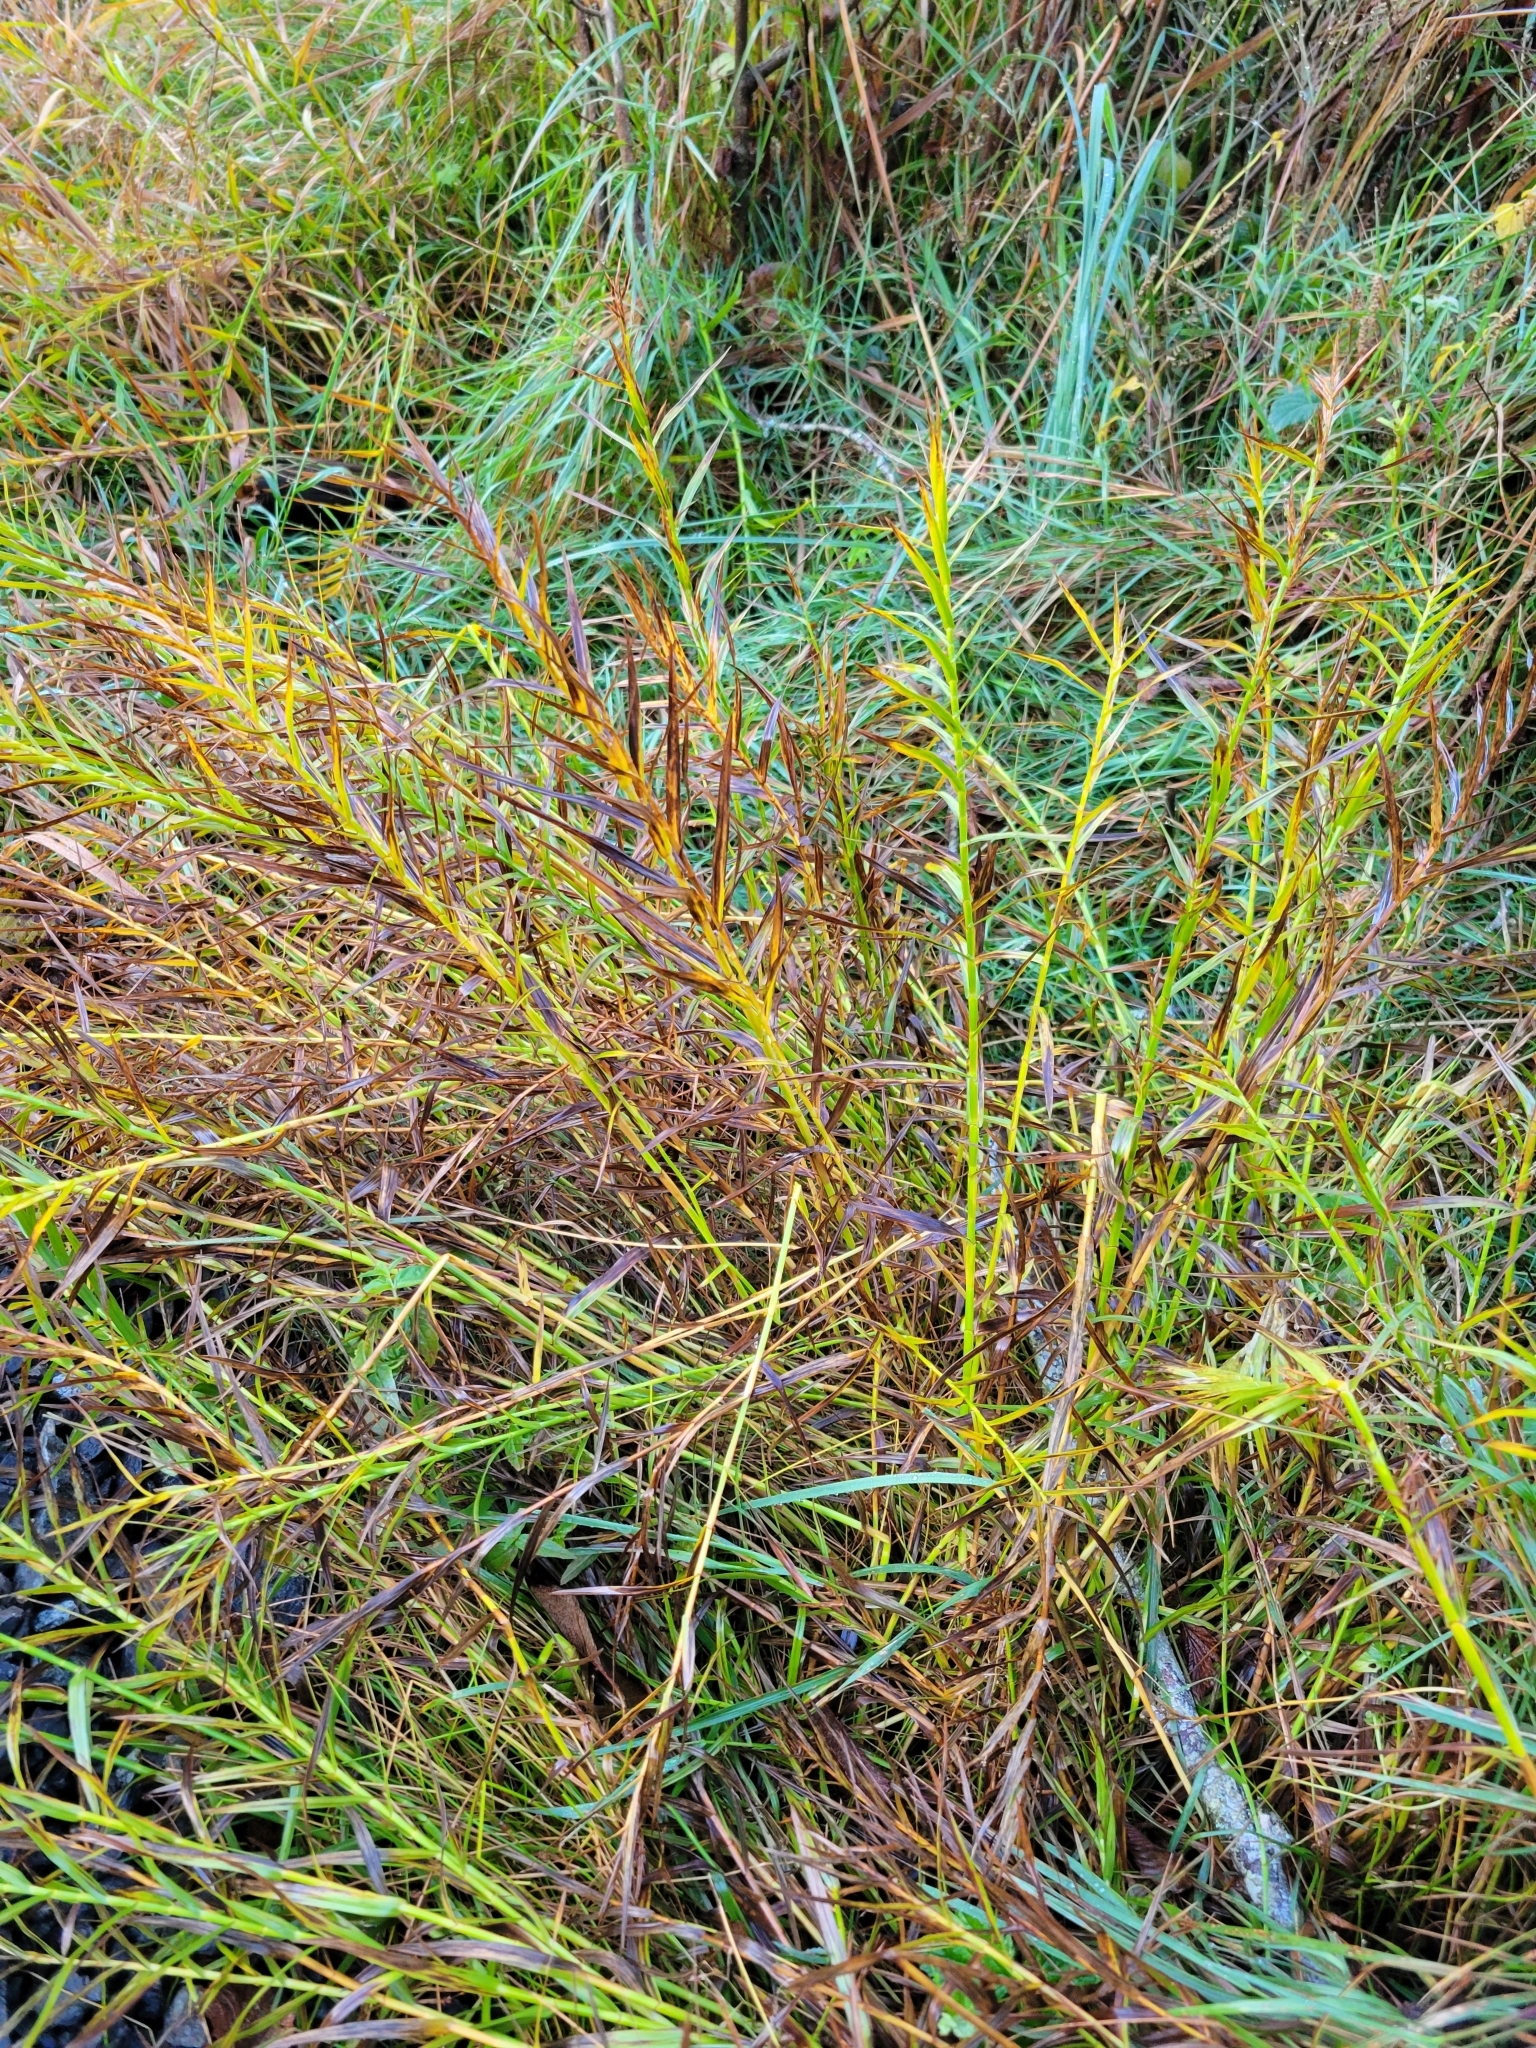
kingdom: Plantae
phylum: Tracheophyta
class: Liliopsida
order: Poales
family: Cyperaceae
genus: Dulichium
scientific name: Dulichium arundinaceum
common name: Three-way sedge
